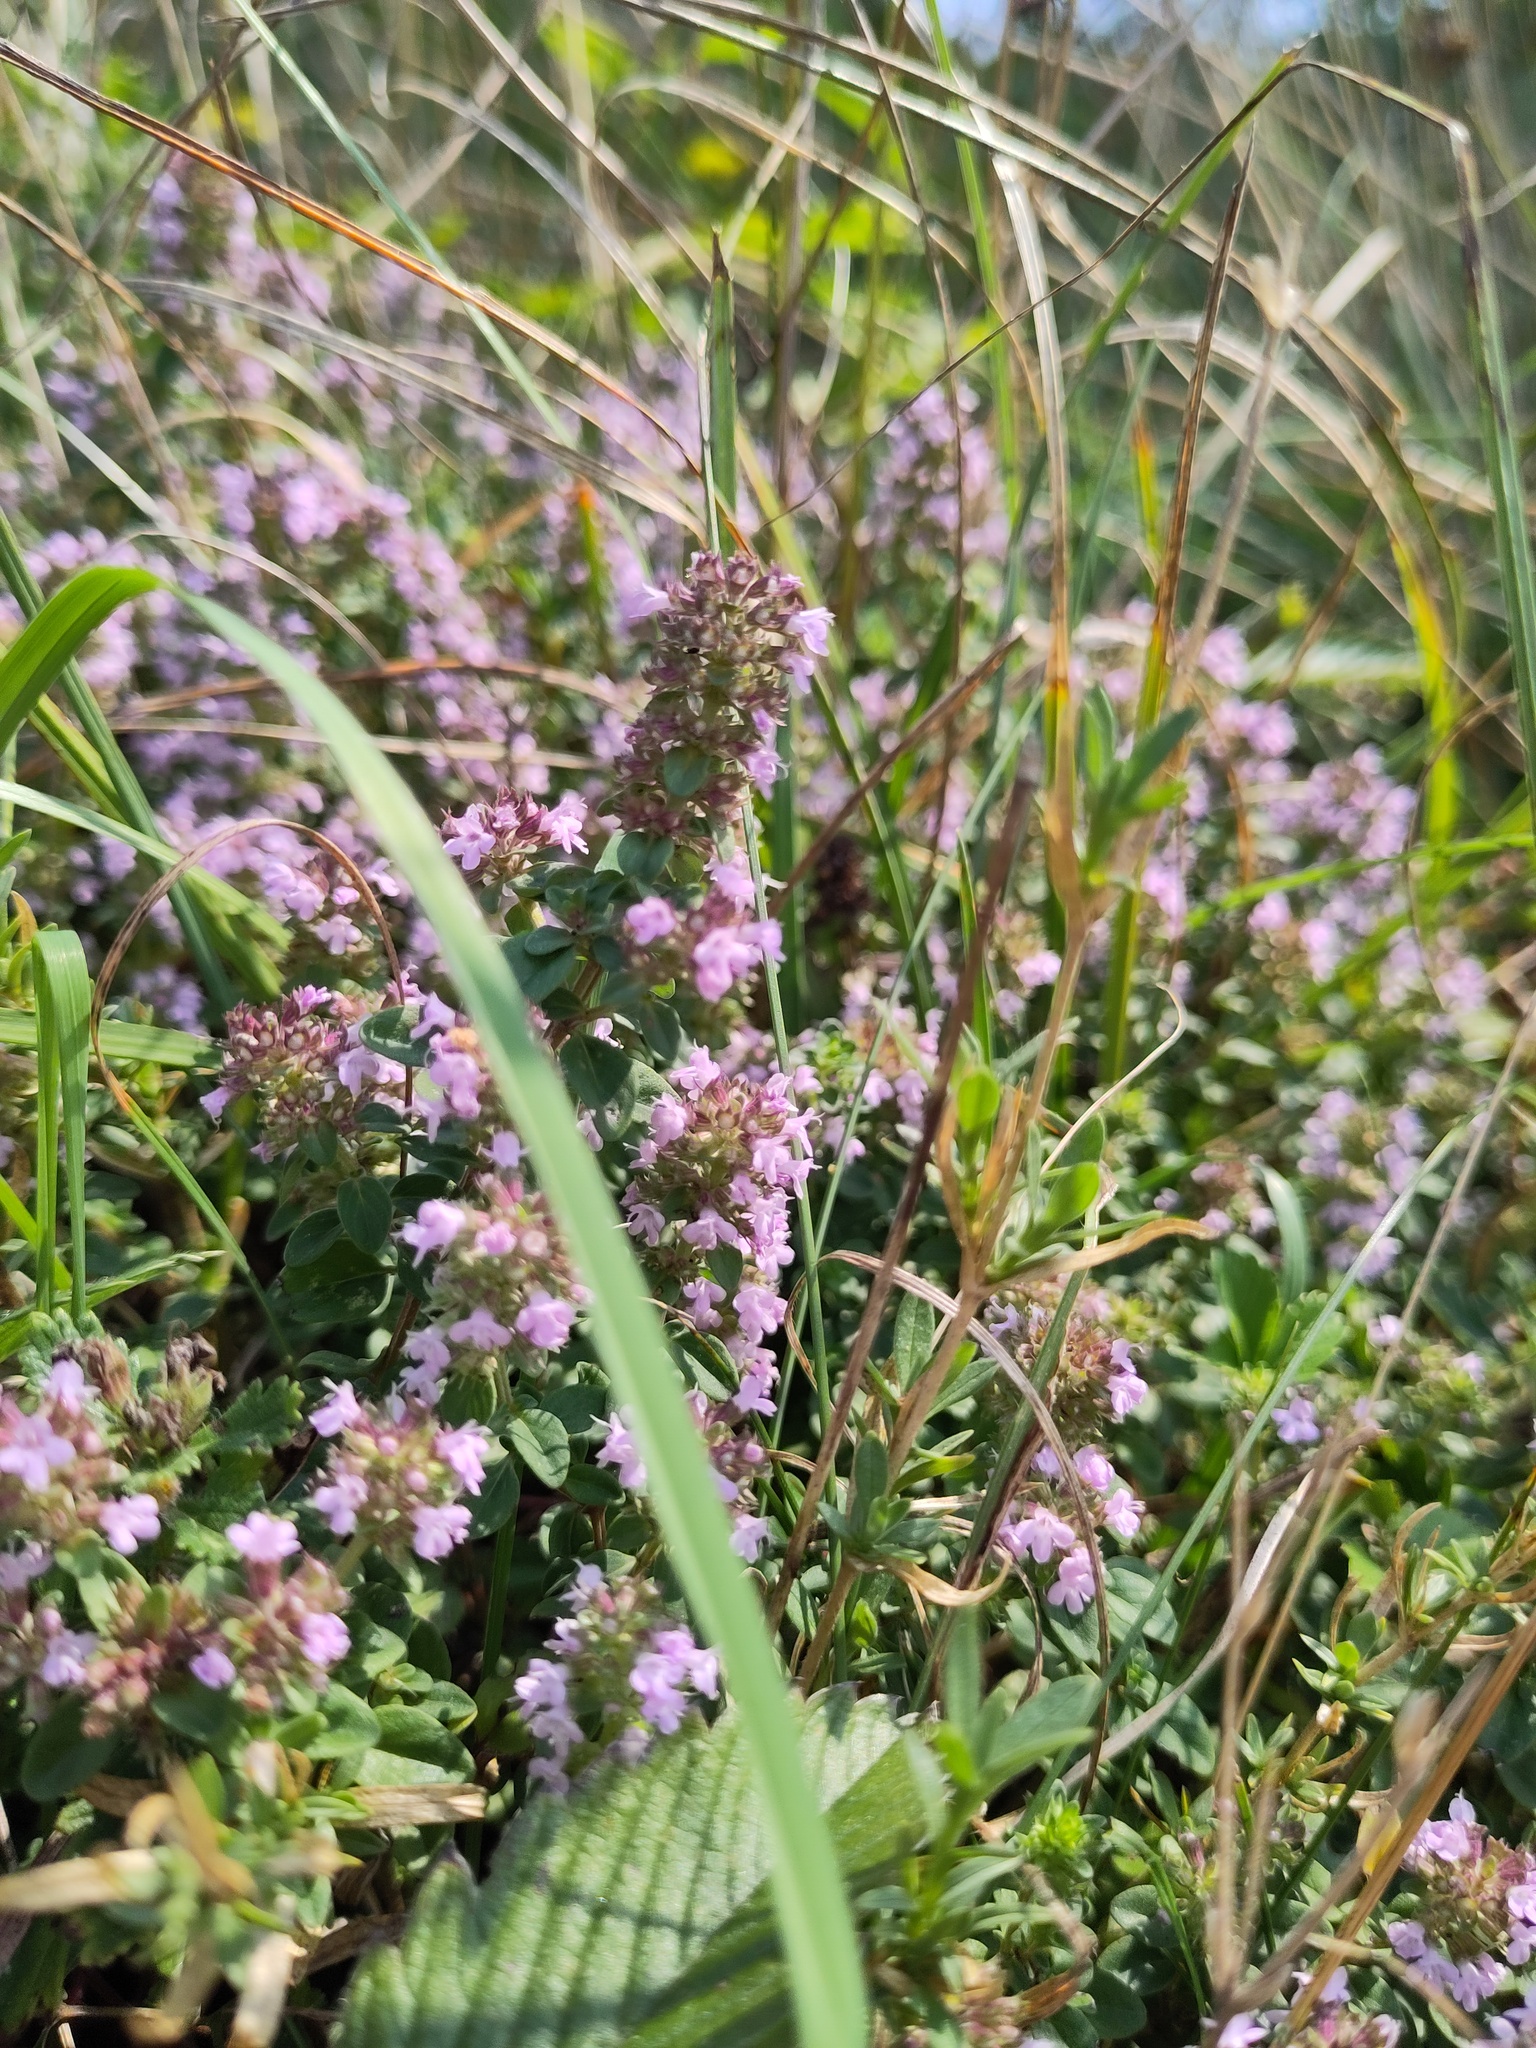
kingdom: Plantae
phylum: Tracheophyta
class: Magnoliopsida
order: Lamiales
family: Lamiaceae
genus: Thymus
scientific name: Thymus pulegioides
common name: Large thyme
